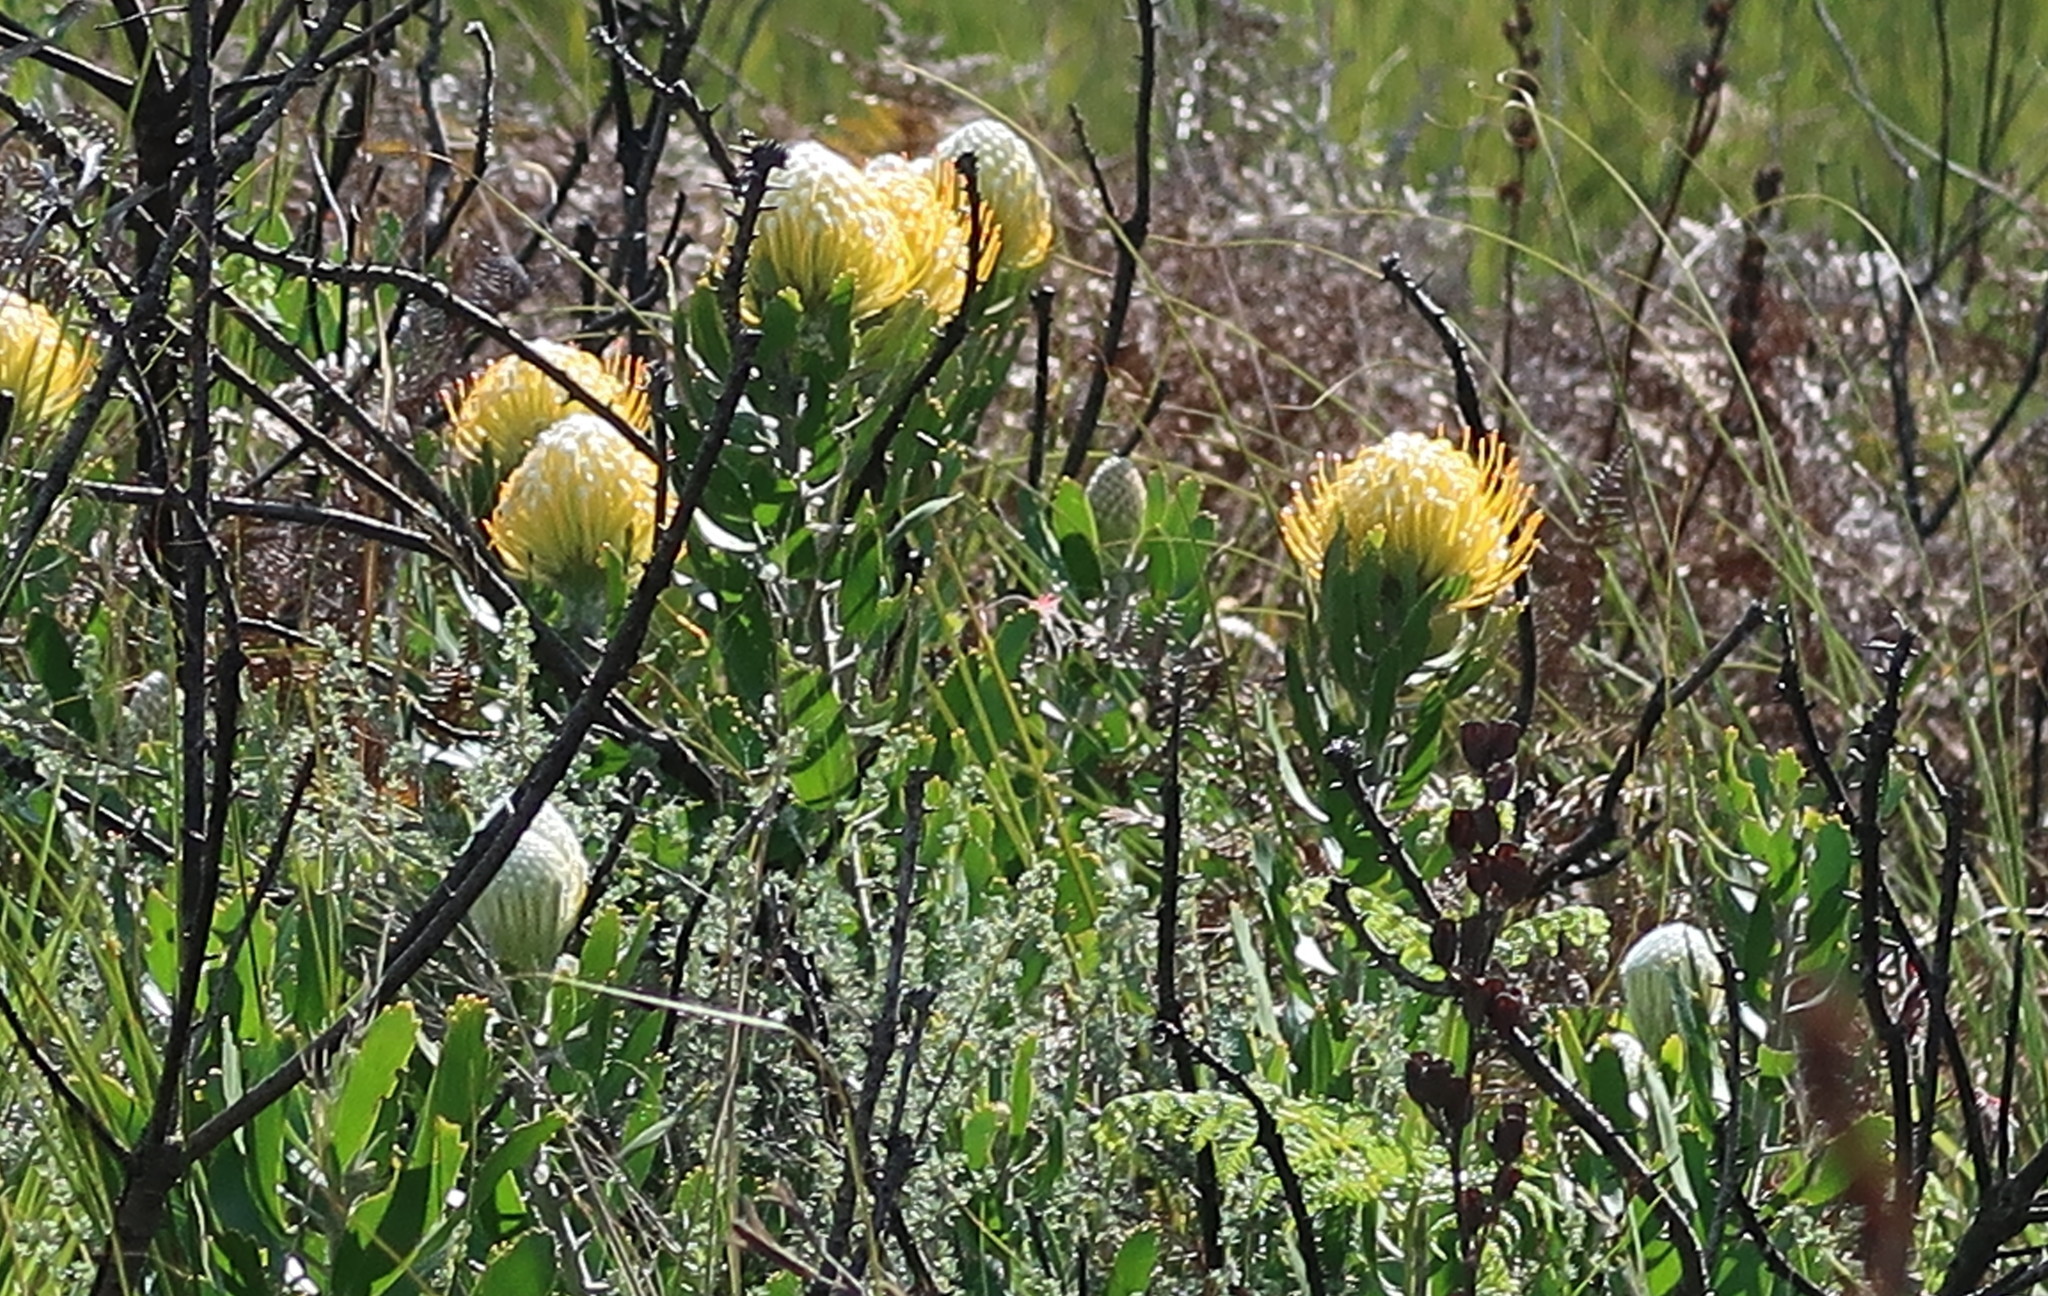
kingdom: Plantae
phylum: Tracheophyta
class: Magnoliopsida
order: Proteales
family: Proteaceae
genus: Leucospermum
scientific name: Leucospermum cuneiforme
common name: Common pincushion
